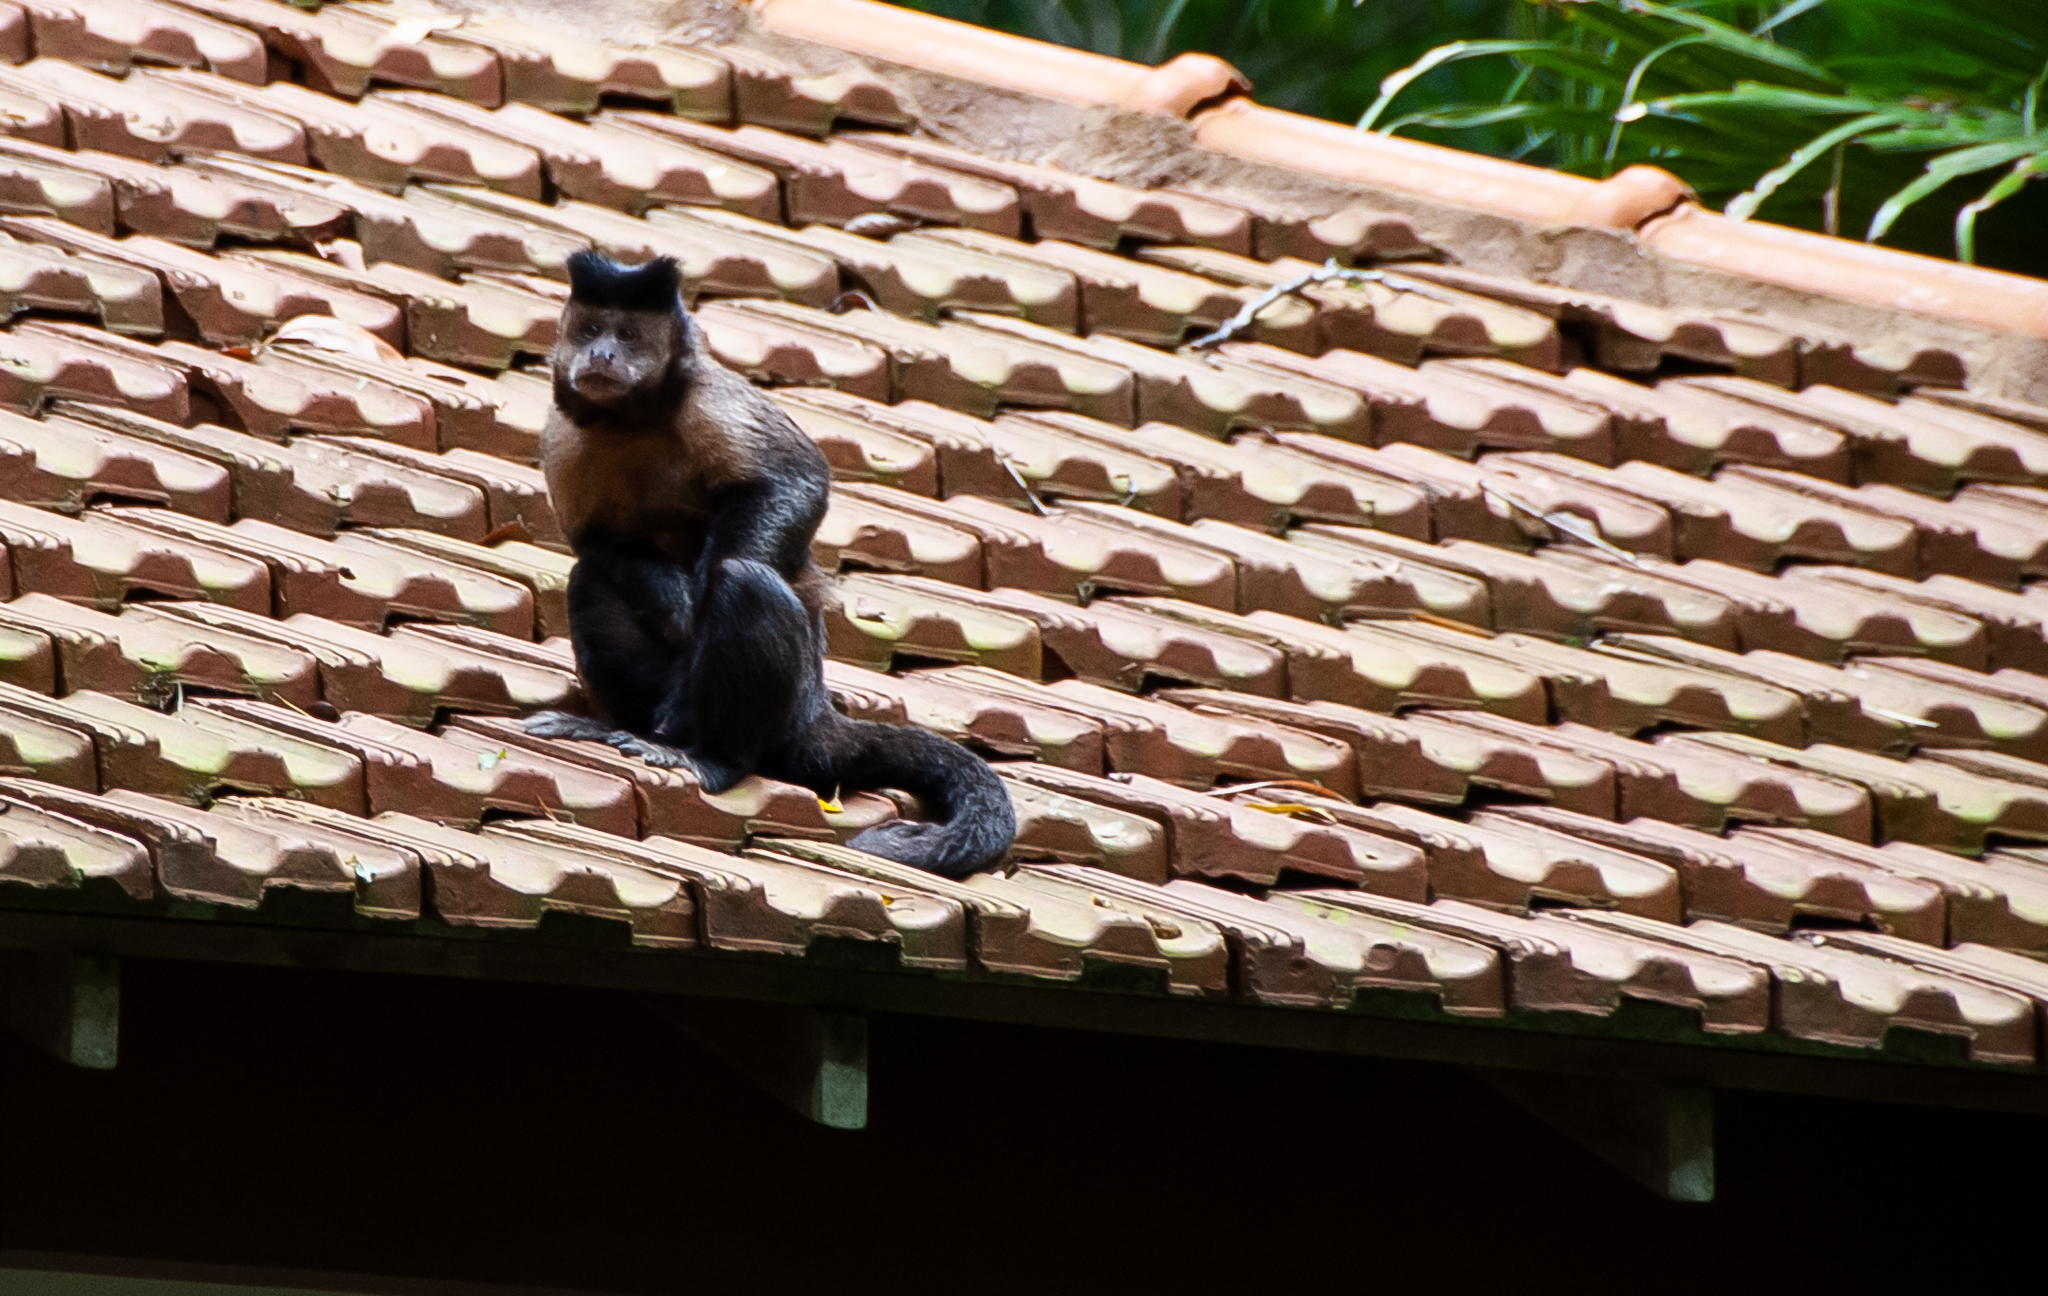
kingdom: Animalia
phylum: Chordata
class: Mammalia
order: Primates
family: Cebidae
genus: Sapajus
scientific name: Sapajus nigritus
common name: Black capuchin
